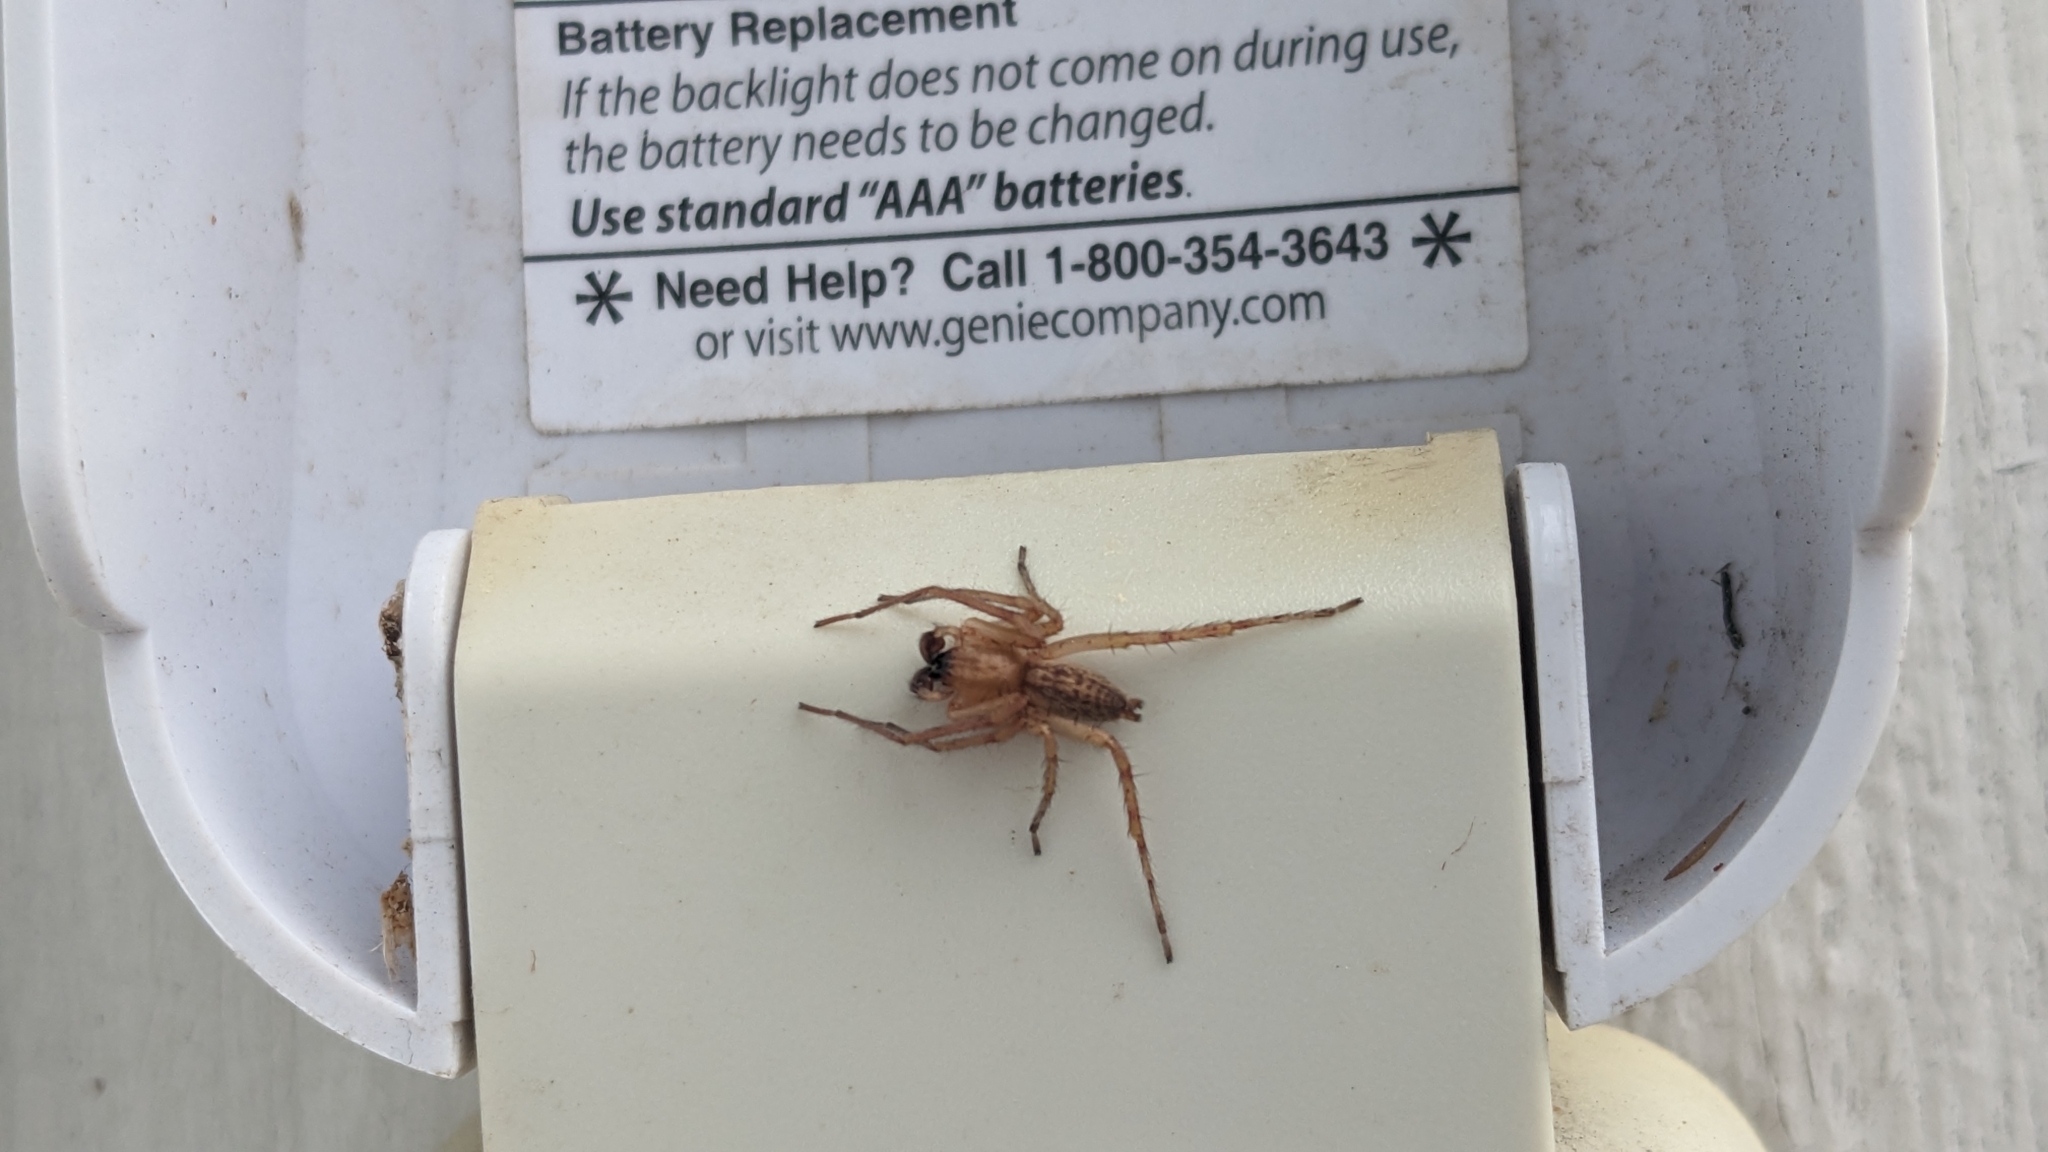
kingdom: Animalia
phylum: Arthropoda
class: Arachnida
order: Araneae
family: Anyphaenidae
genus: Hibana
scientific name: Hibana gracilis
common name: Garden ghost spider
